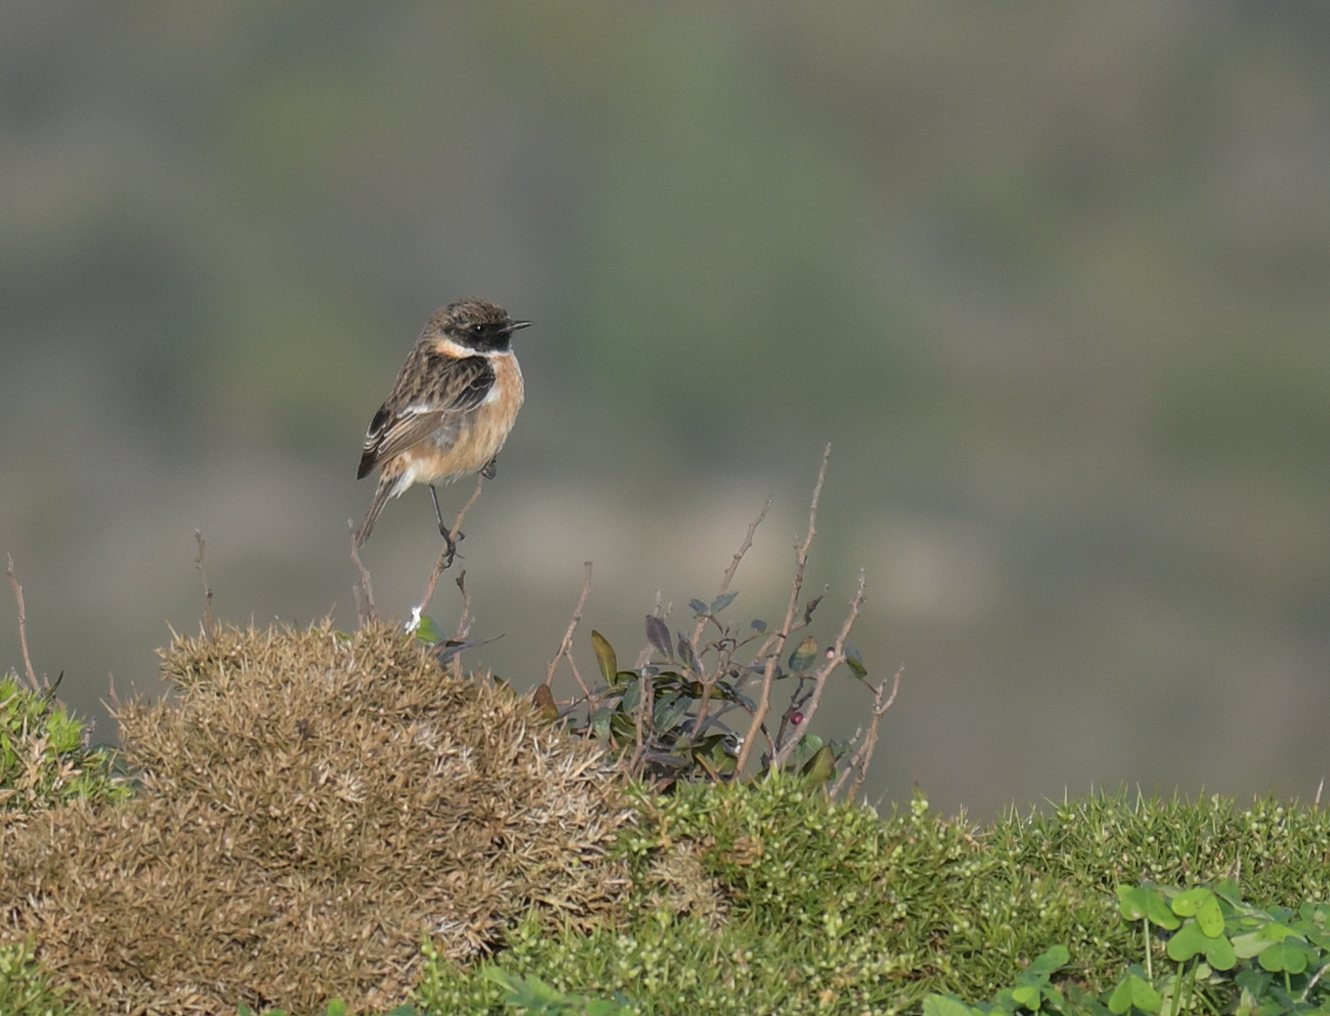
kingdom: Animalia
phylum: Chordata
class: Aves
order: Passeriformes
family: Muscicapidae
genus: Saxicola
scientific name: Saxicola rubicola
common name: European stonechat
